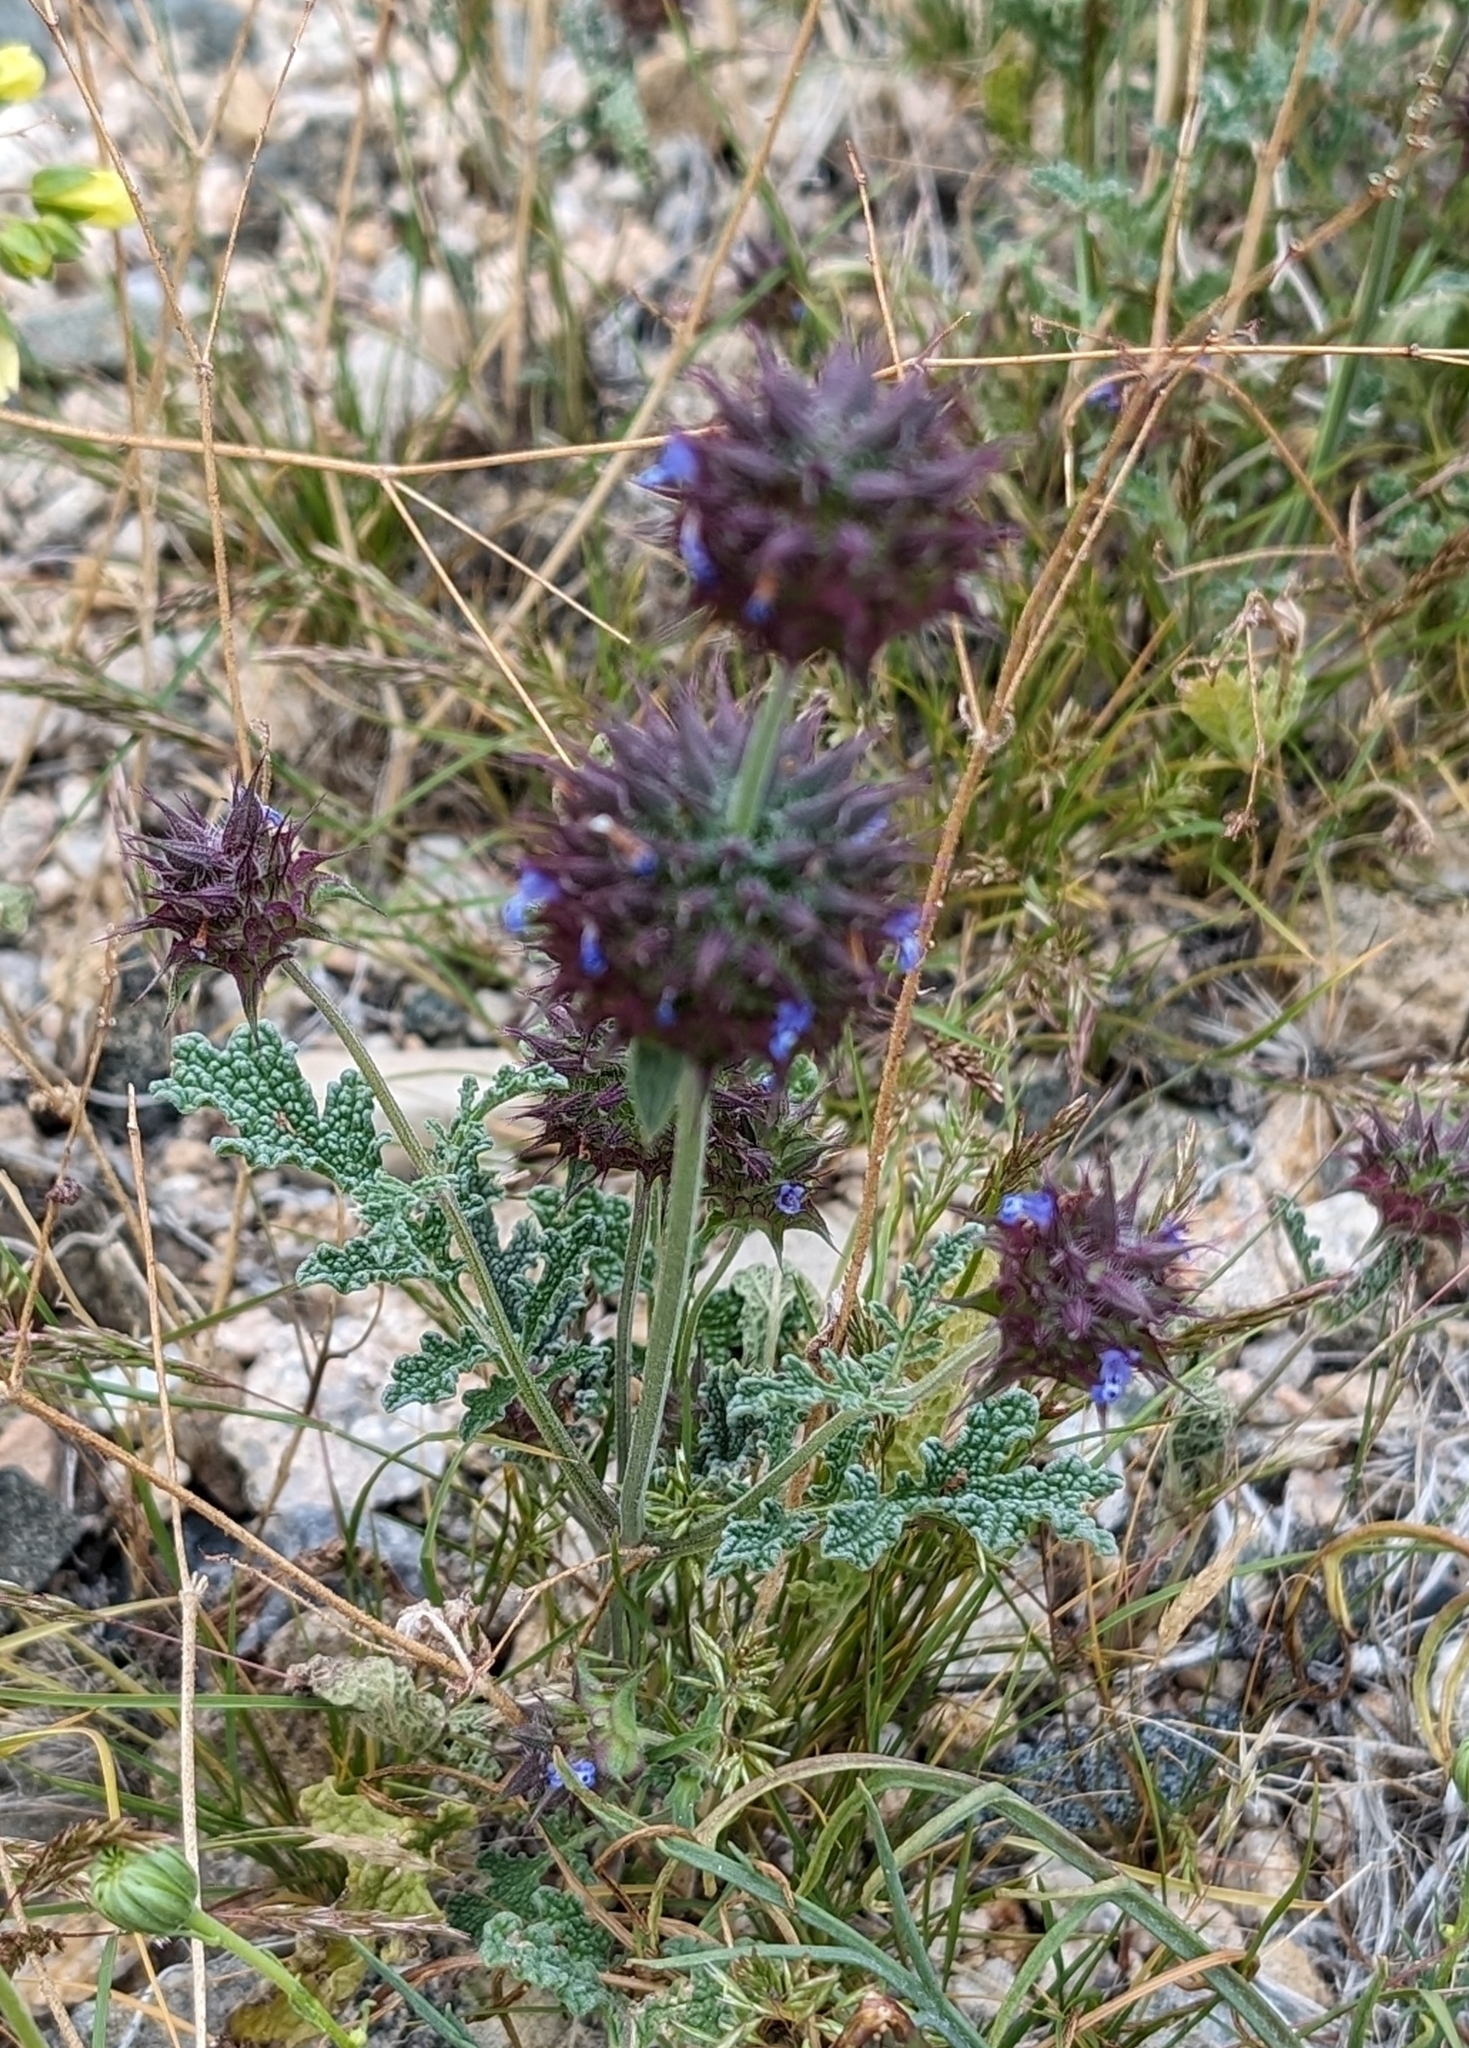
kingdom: Plantae
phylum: Tracheophyta
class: Magnoliopsida
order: Lamiales
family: Lamiaceae
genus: Salvia
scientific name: Salvia columbariae
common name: Chia
